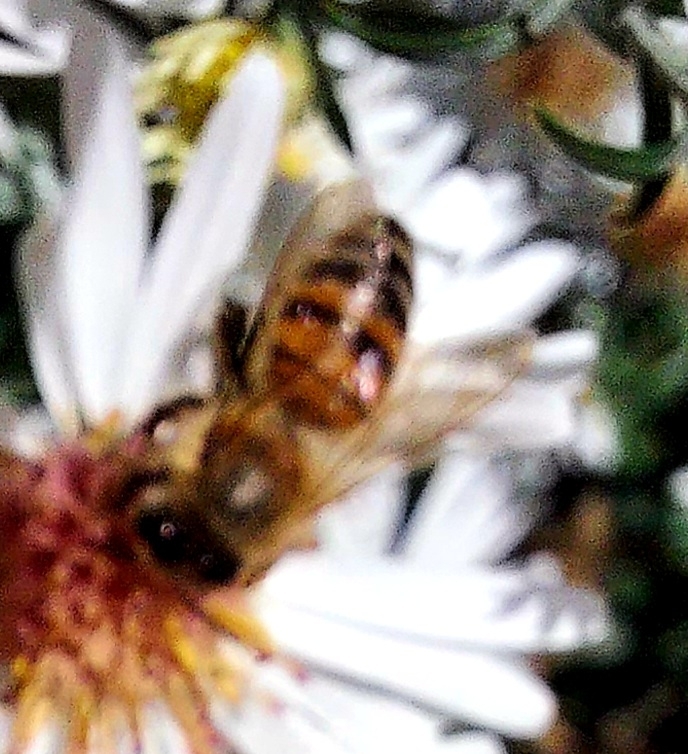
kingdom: Animalia
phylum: Arthropoda
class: Insecta
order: Hymenoptera
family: Apidae
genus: Apis
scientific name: Apis mellifera
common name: Honey bee
